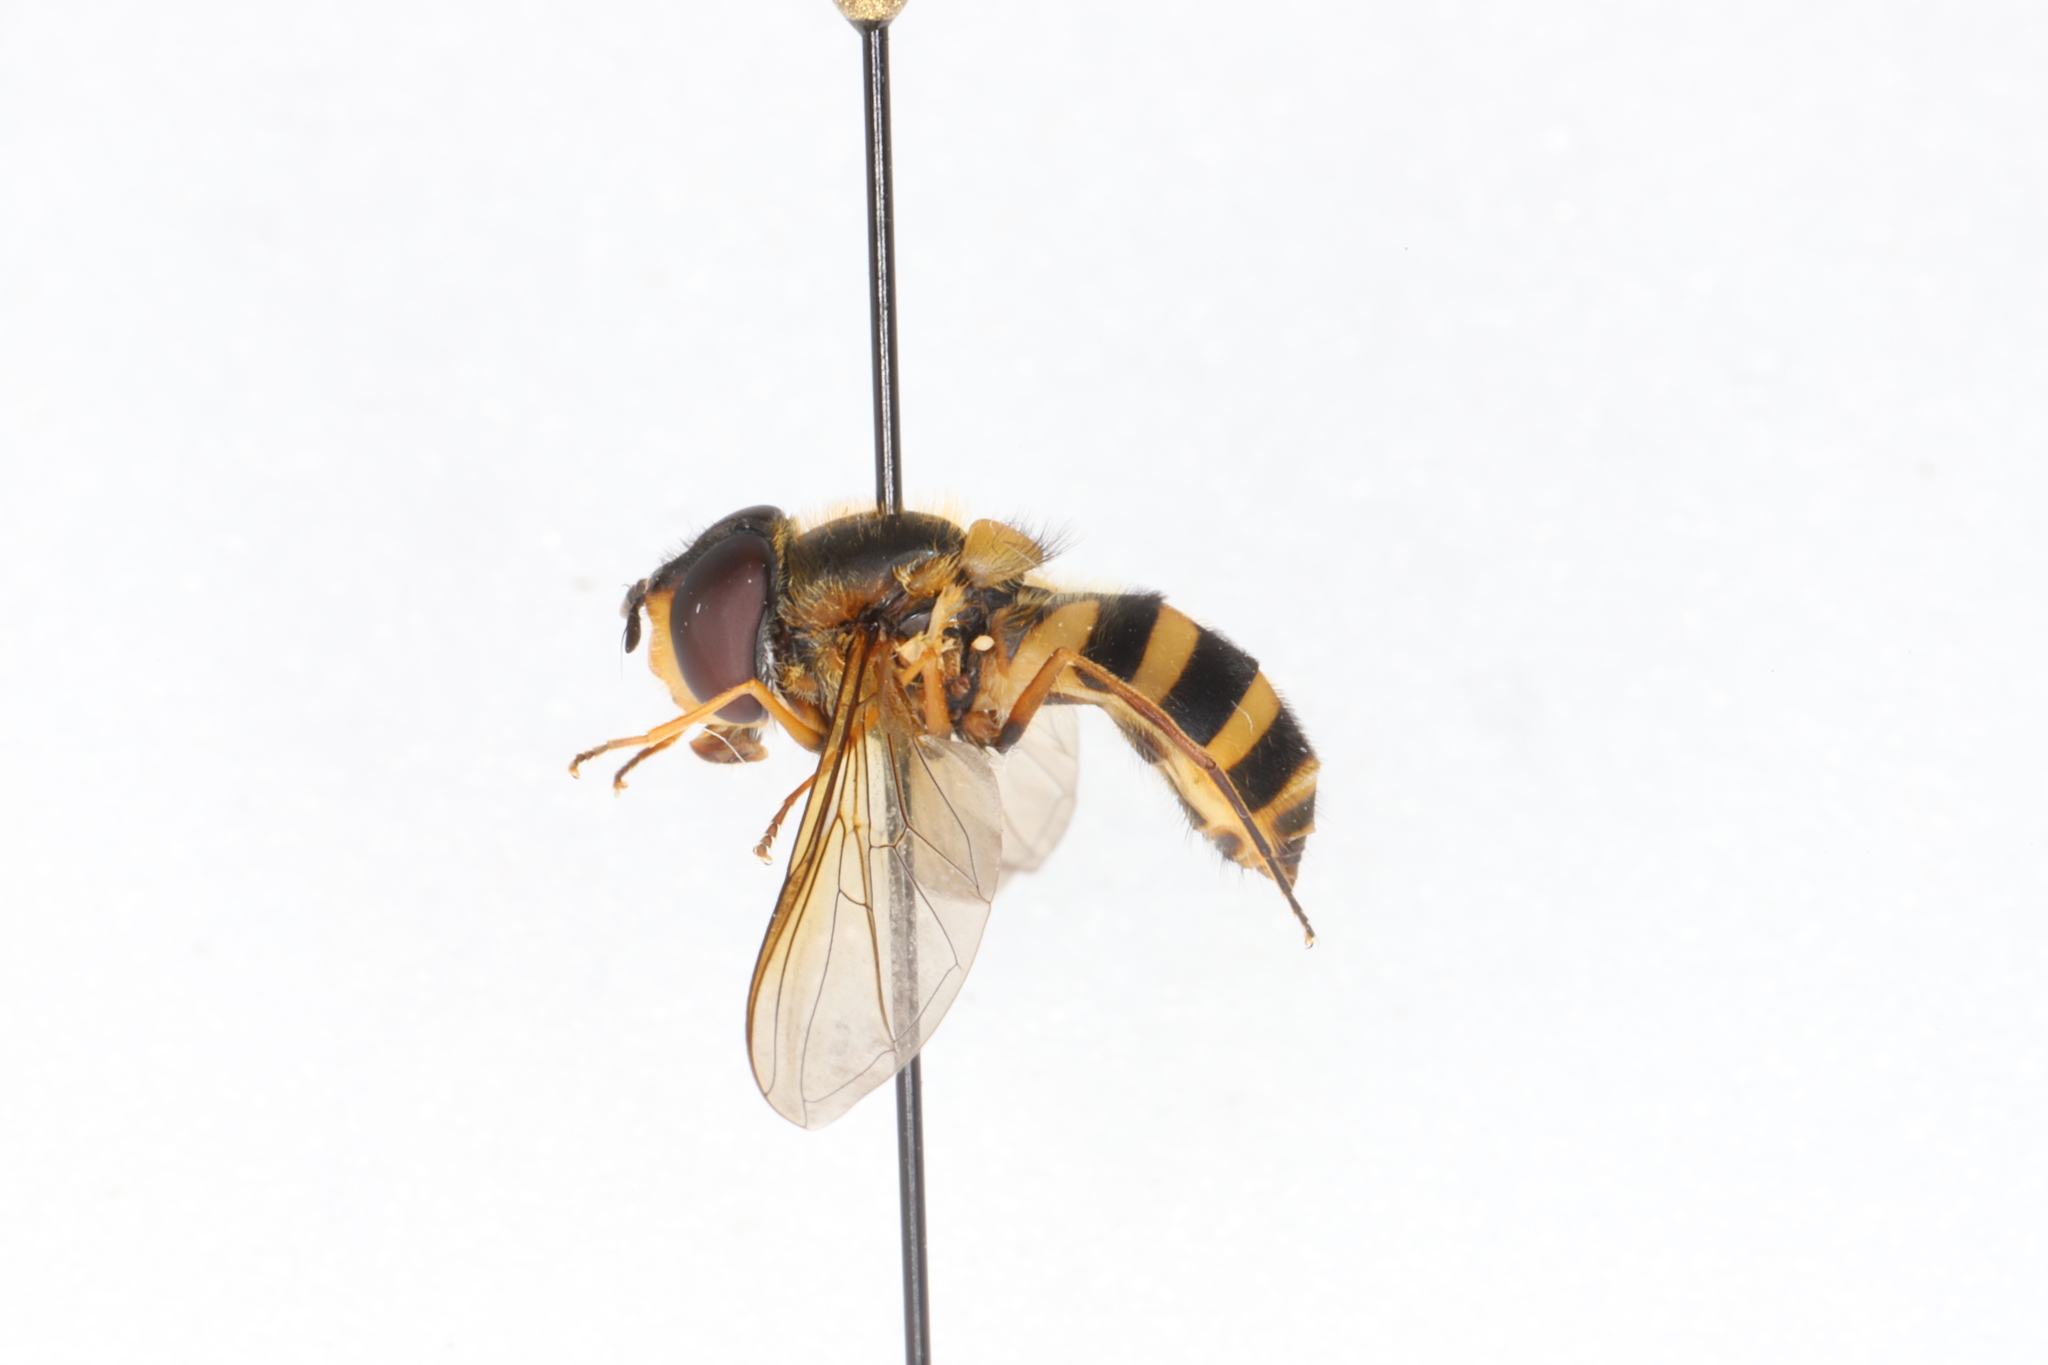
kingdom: Animalia
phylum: Arthropoda
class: Insecta
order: Diptera
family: Syrphidae
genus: Epistrophe
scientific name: Epistrophe grossulariae
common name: Black-horned smoothtail
